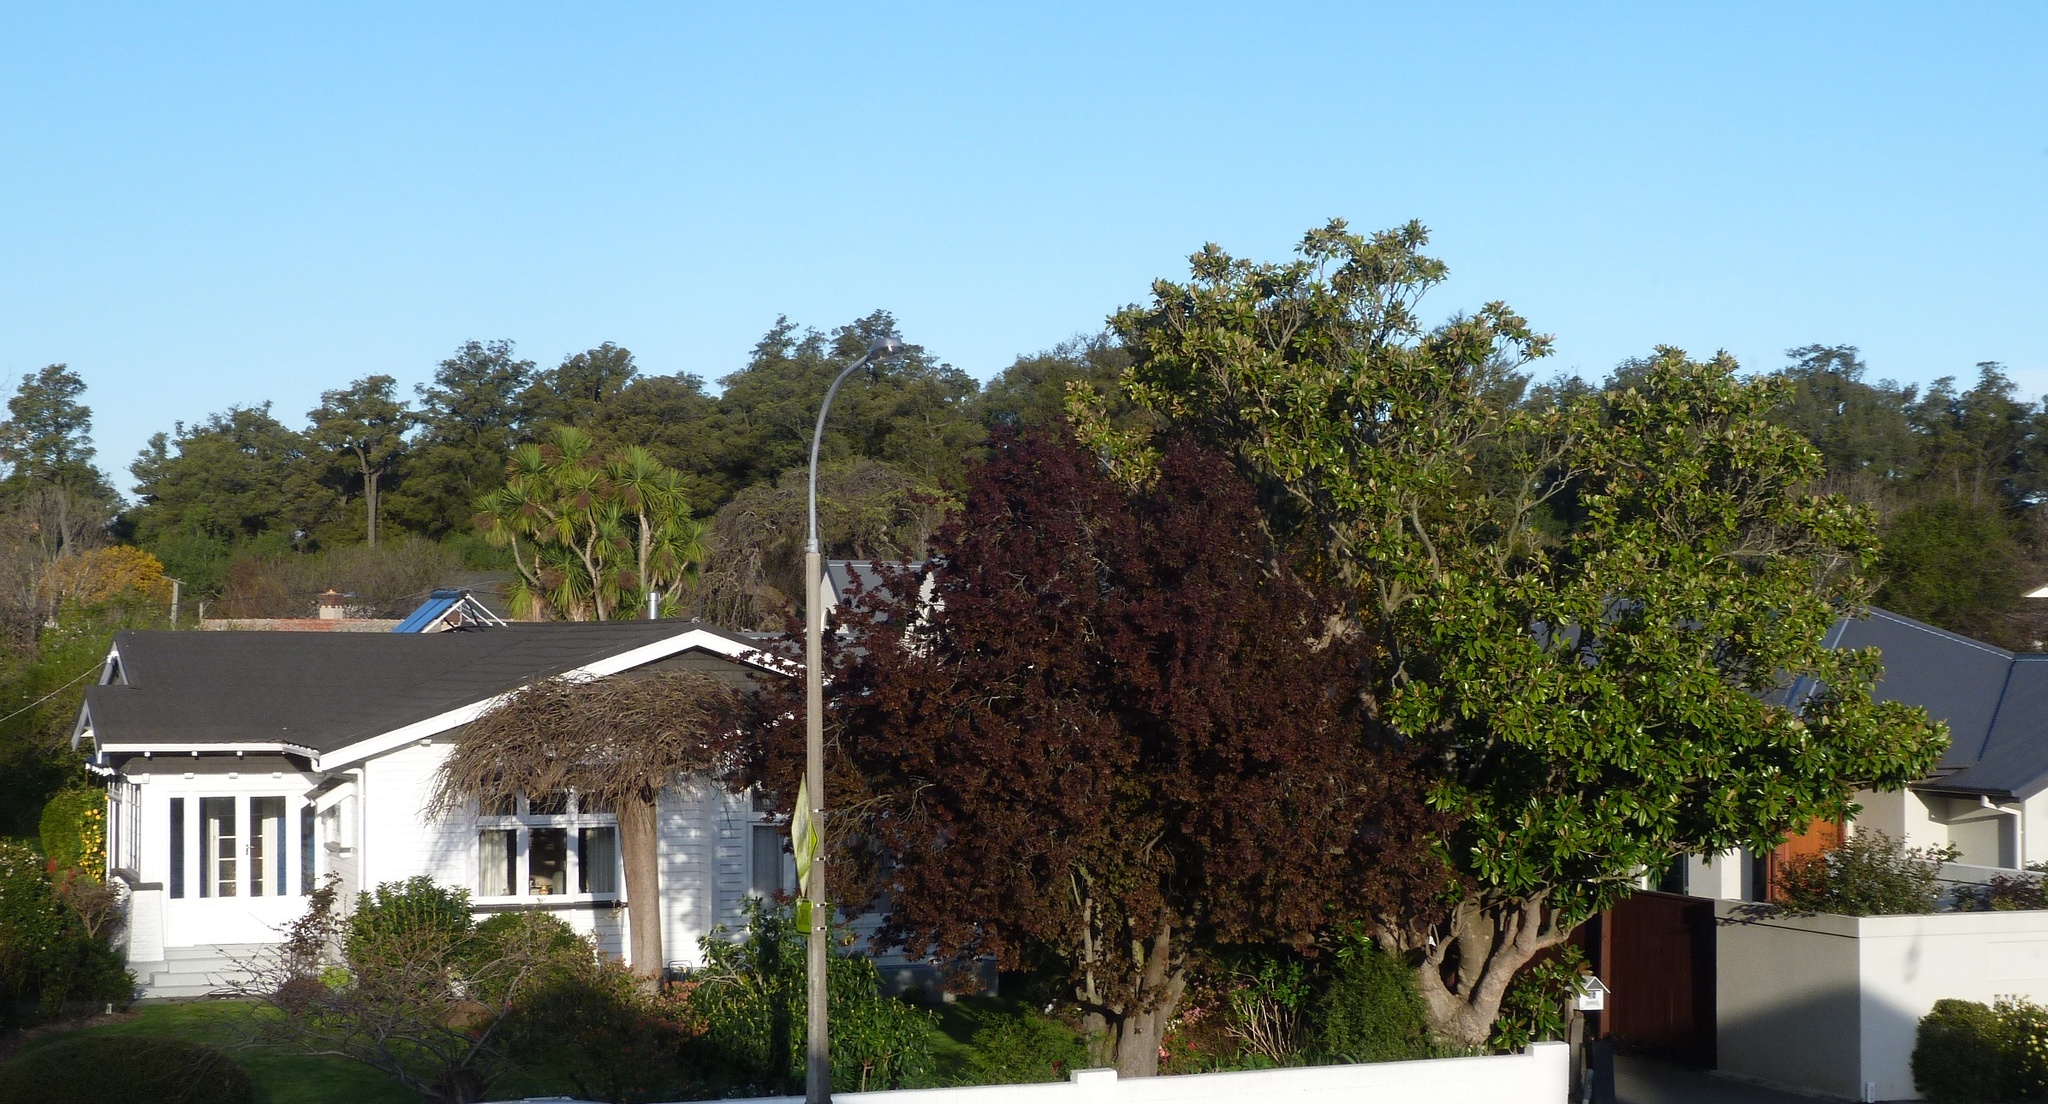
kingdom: Plantae
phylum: Tracheophyta
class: Pinopsida
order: Pinales
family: Podocarpaceae
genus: Dacrycarpus
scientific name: Dacrycarpus dacrydioides
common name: White pine
